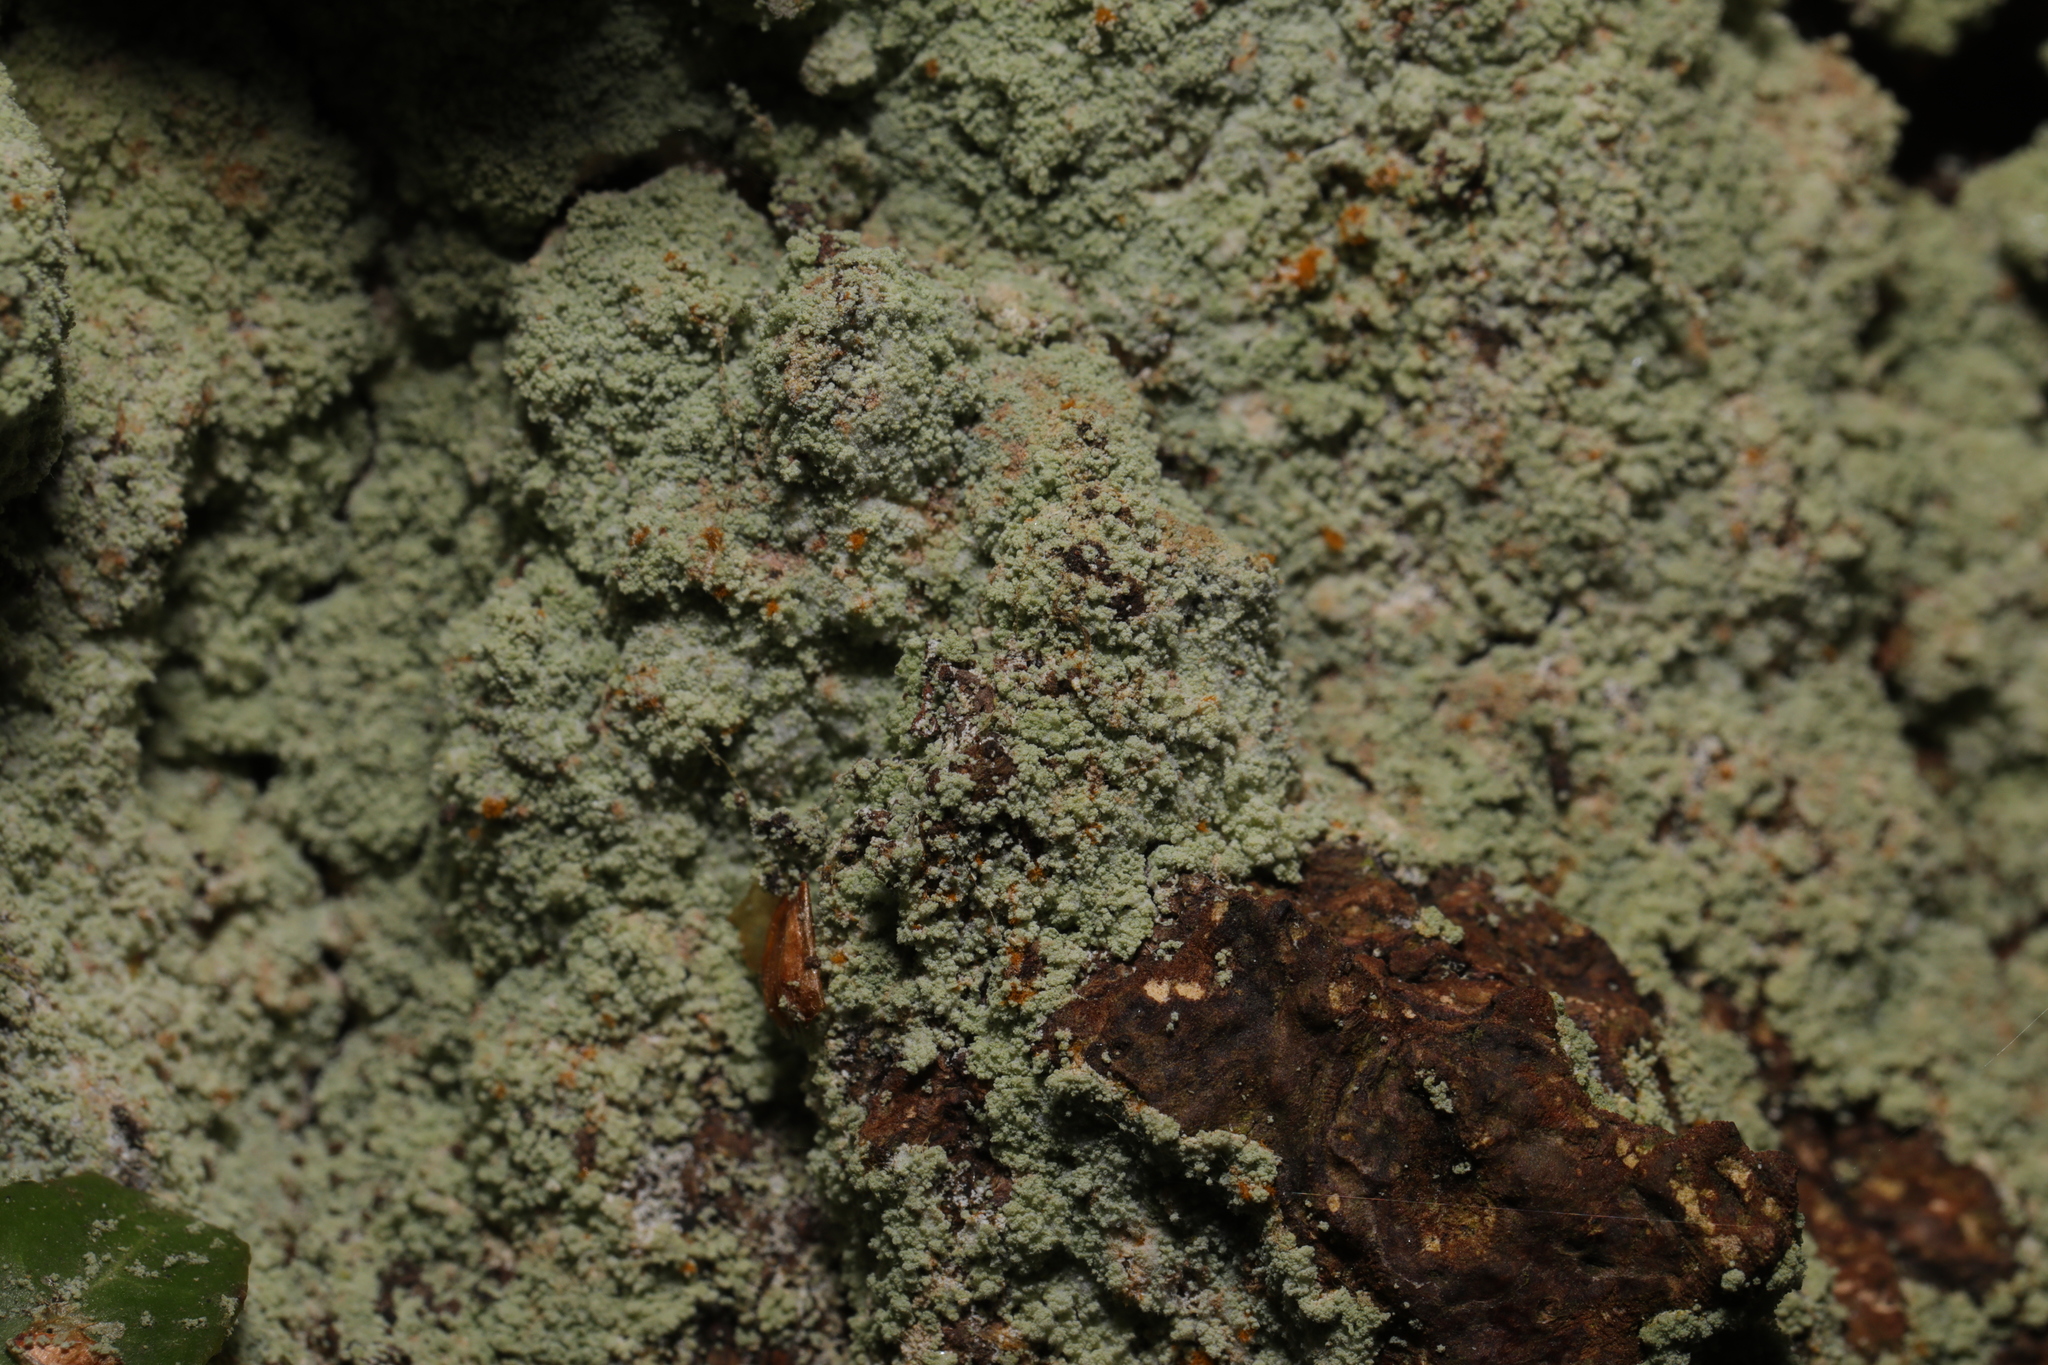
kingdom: Fungi
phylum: Ascomycota
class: Lecanoromycetes
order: Lecanorales
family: Stereocaulaceae
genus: Lepraria
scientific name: Lepraria
